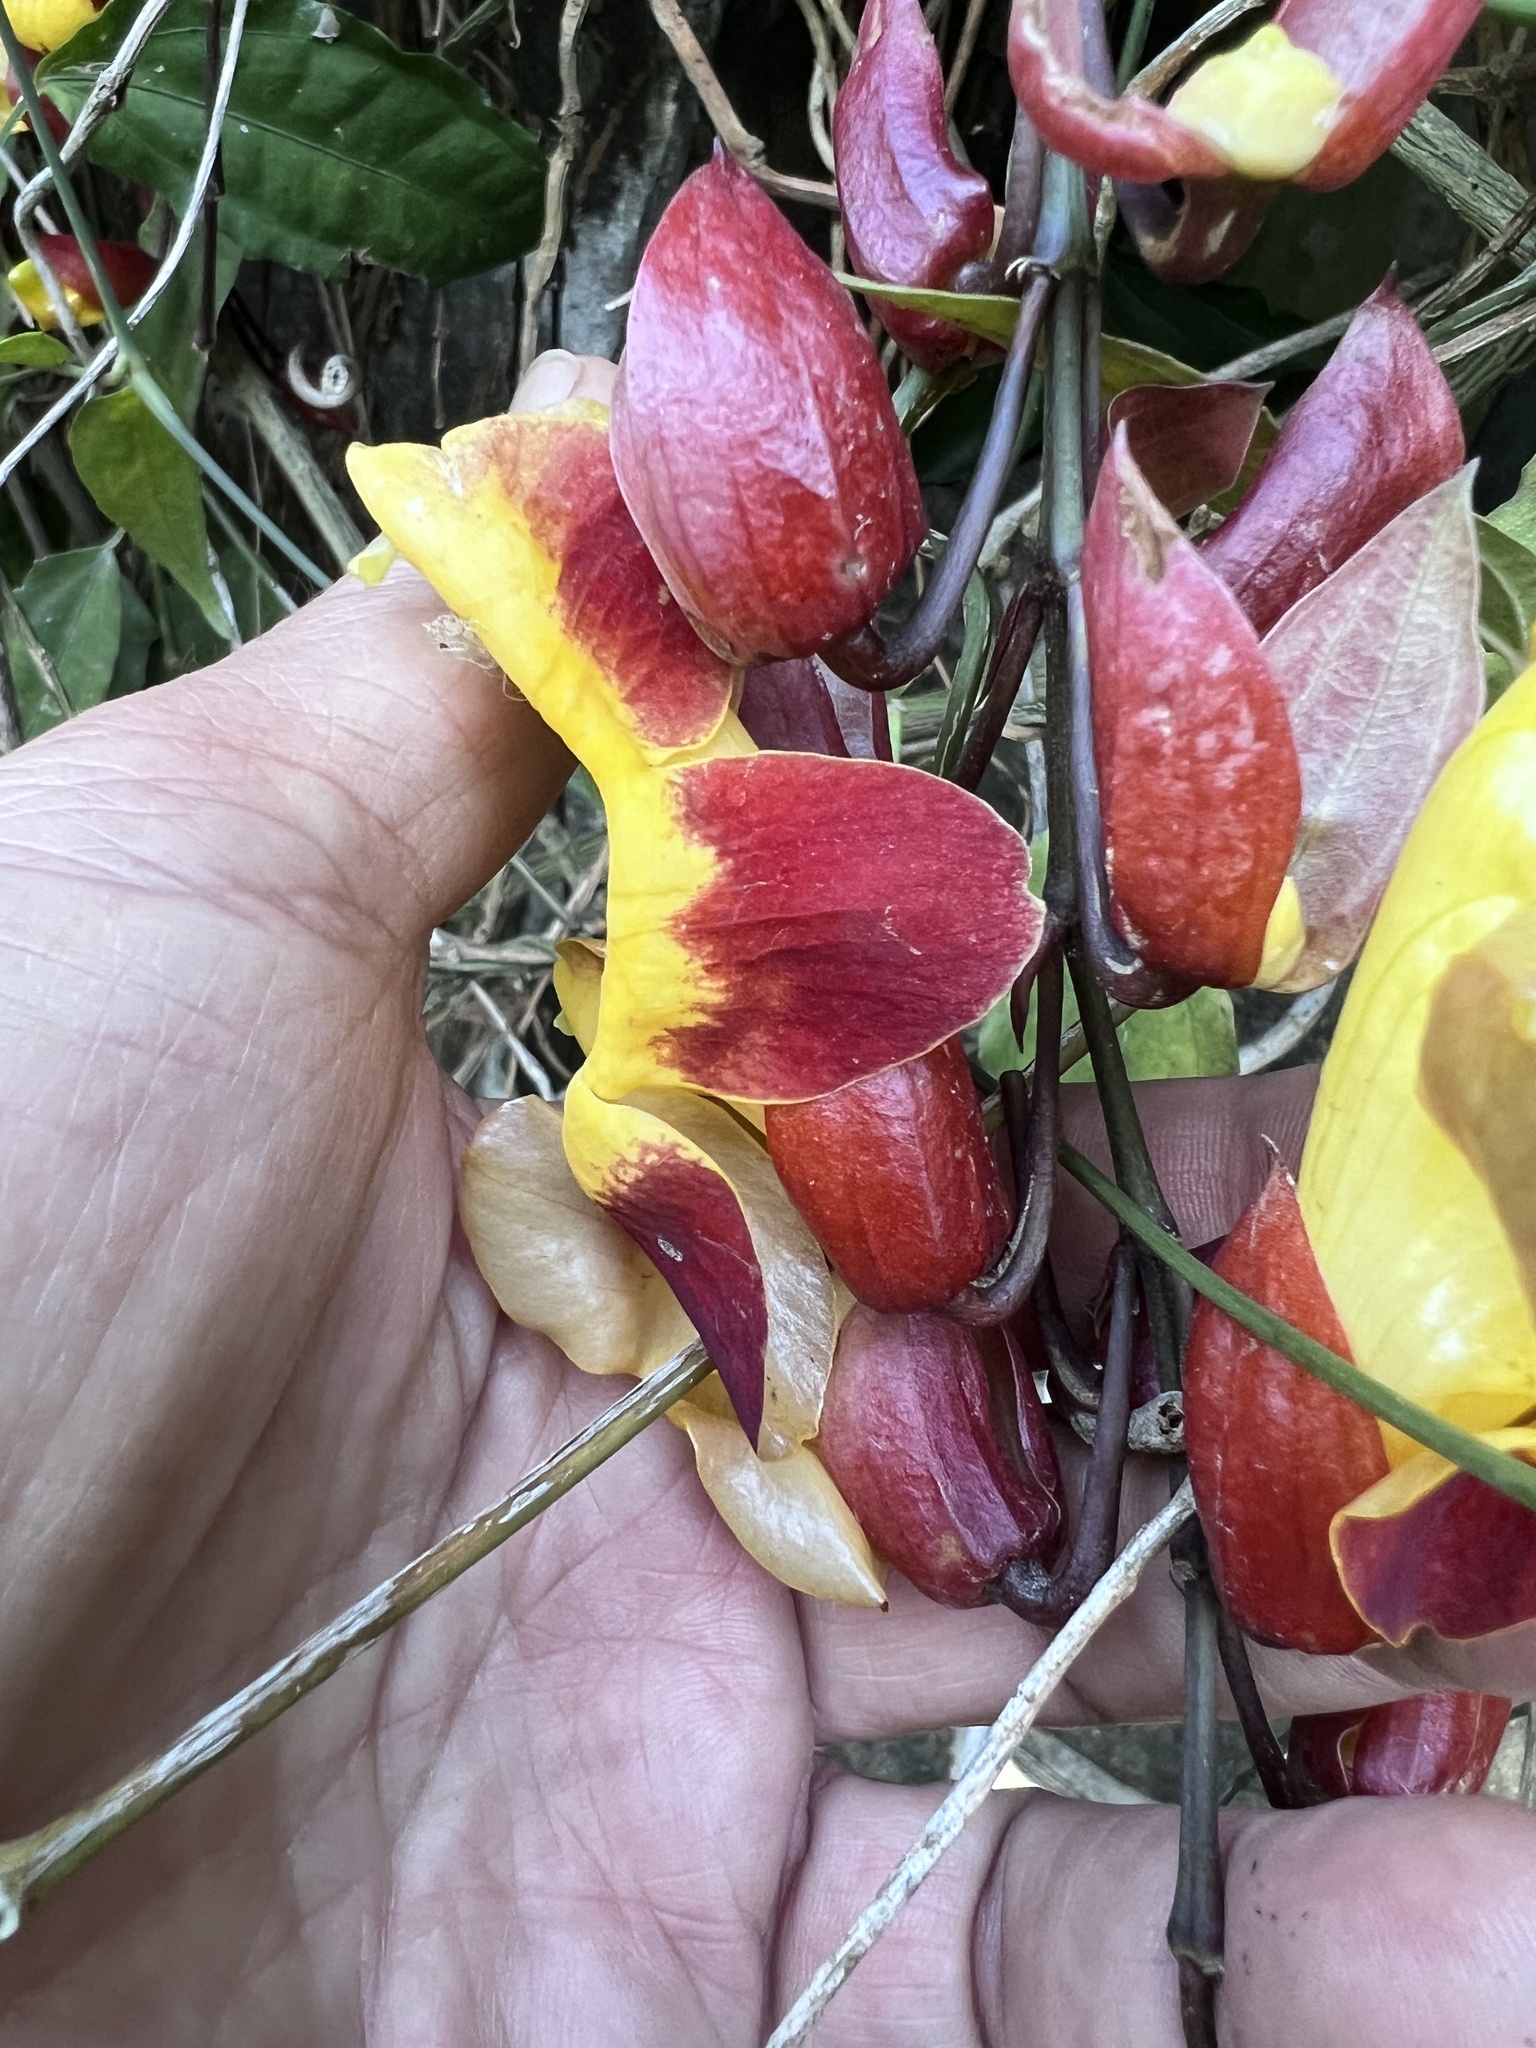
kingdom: Plantae
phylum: Tracheophyta
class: Magnoliopsida
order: Lamiales
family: Acanthaceae
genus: Thunbergia
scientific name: Thunbergia mysorensis
